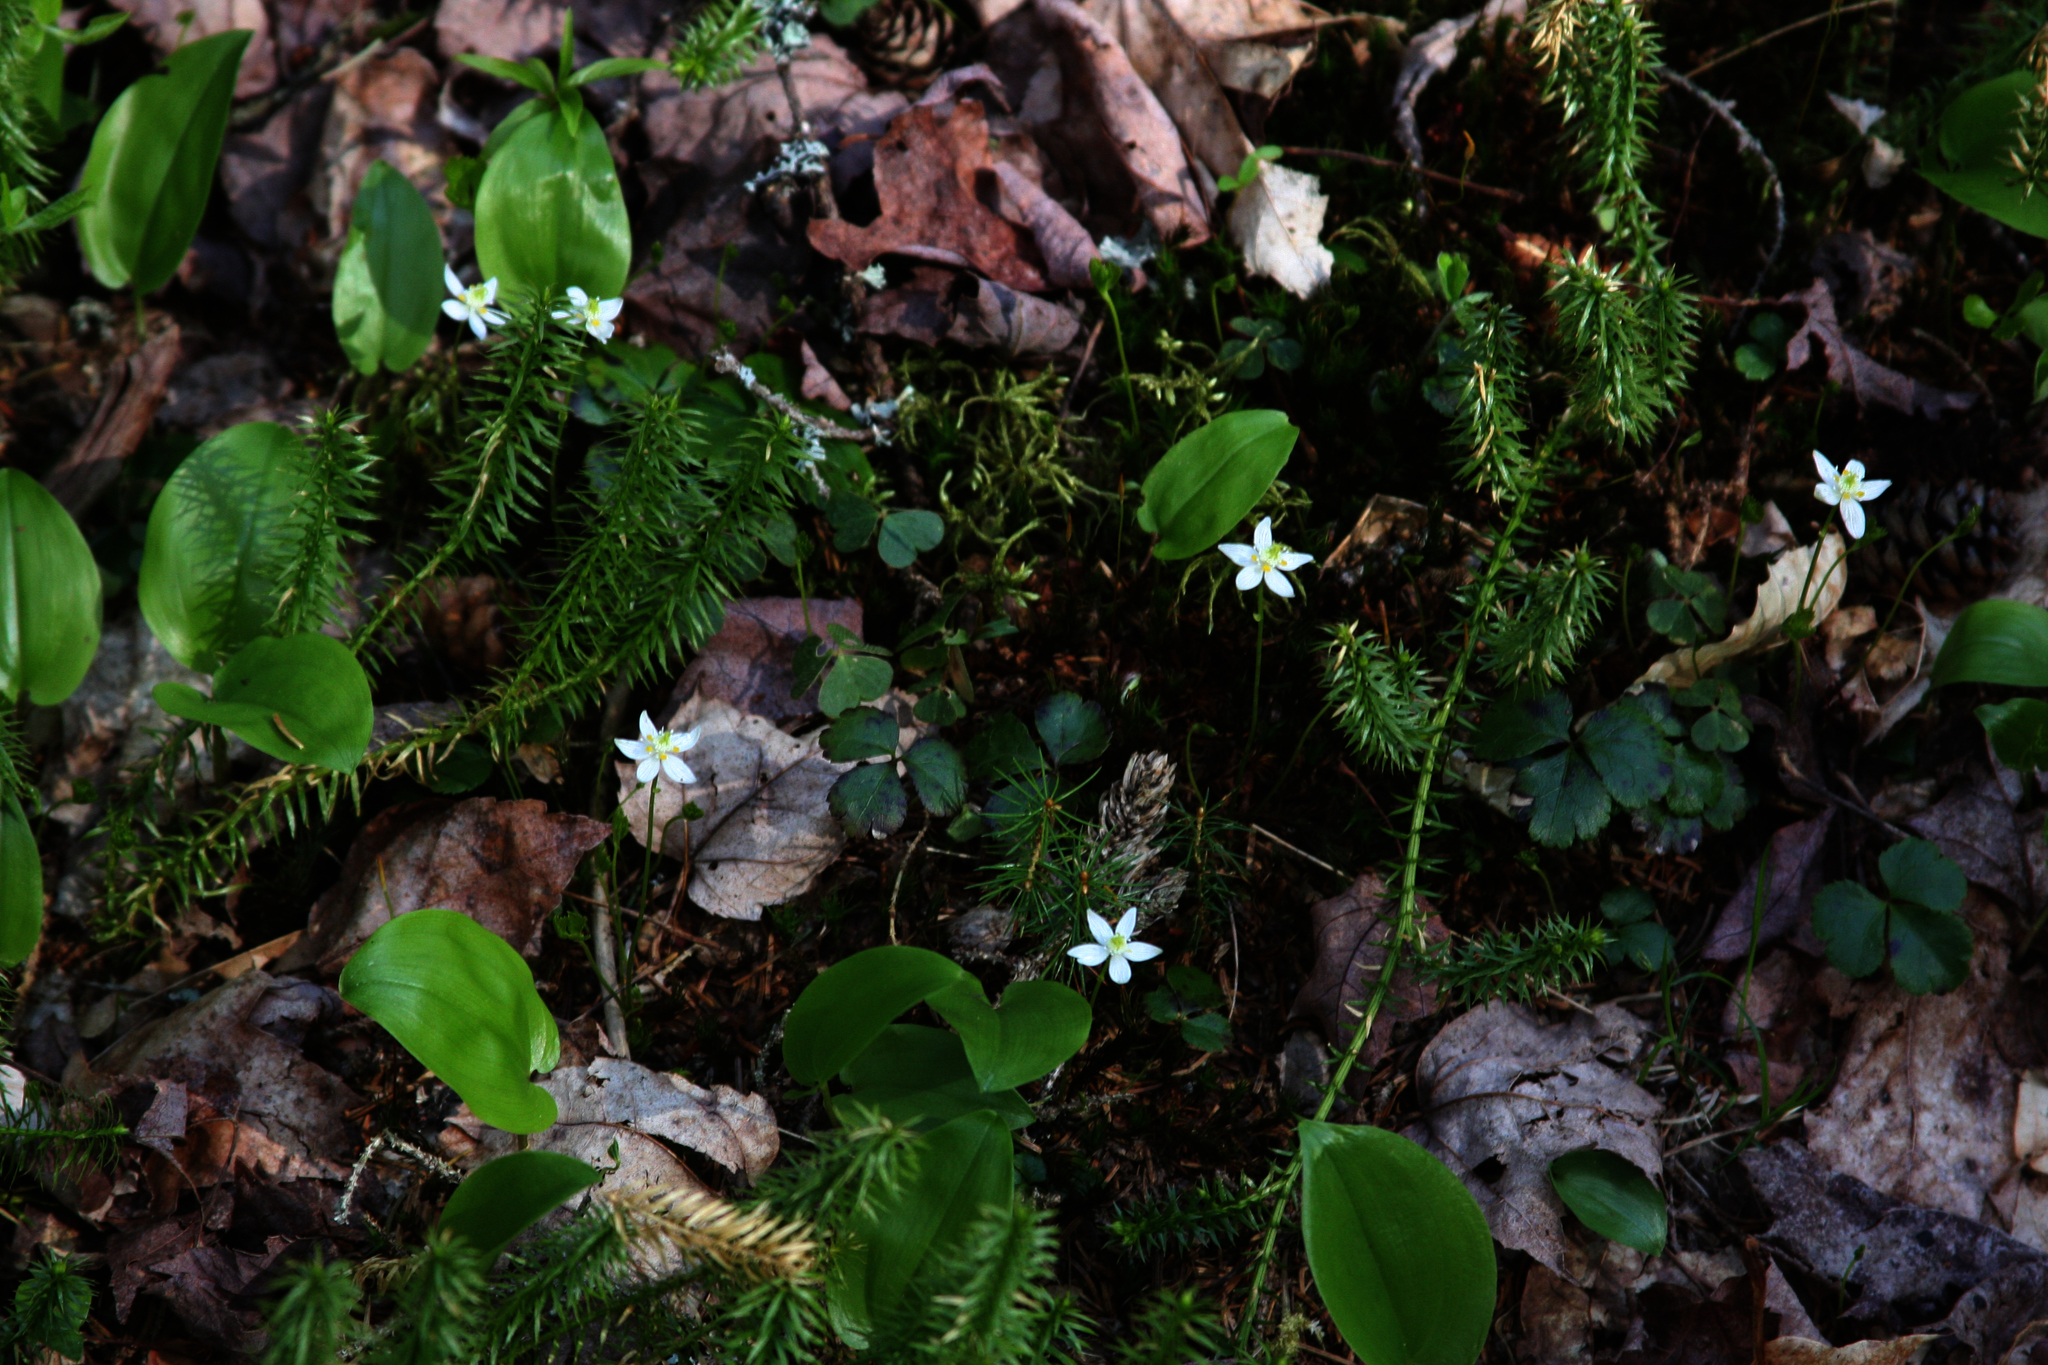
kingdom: Plantae
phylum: Tracheophyta
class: Magnoliopsida
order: Ranunculales
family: Ranunculaceae
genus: Coptis
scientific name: Coptis trifolia
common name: Canker-root
